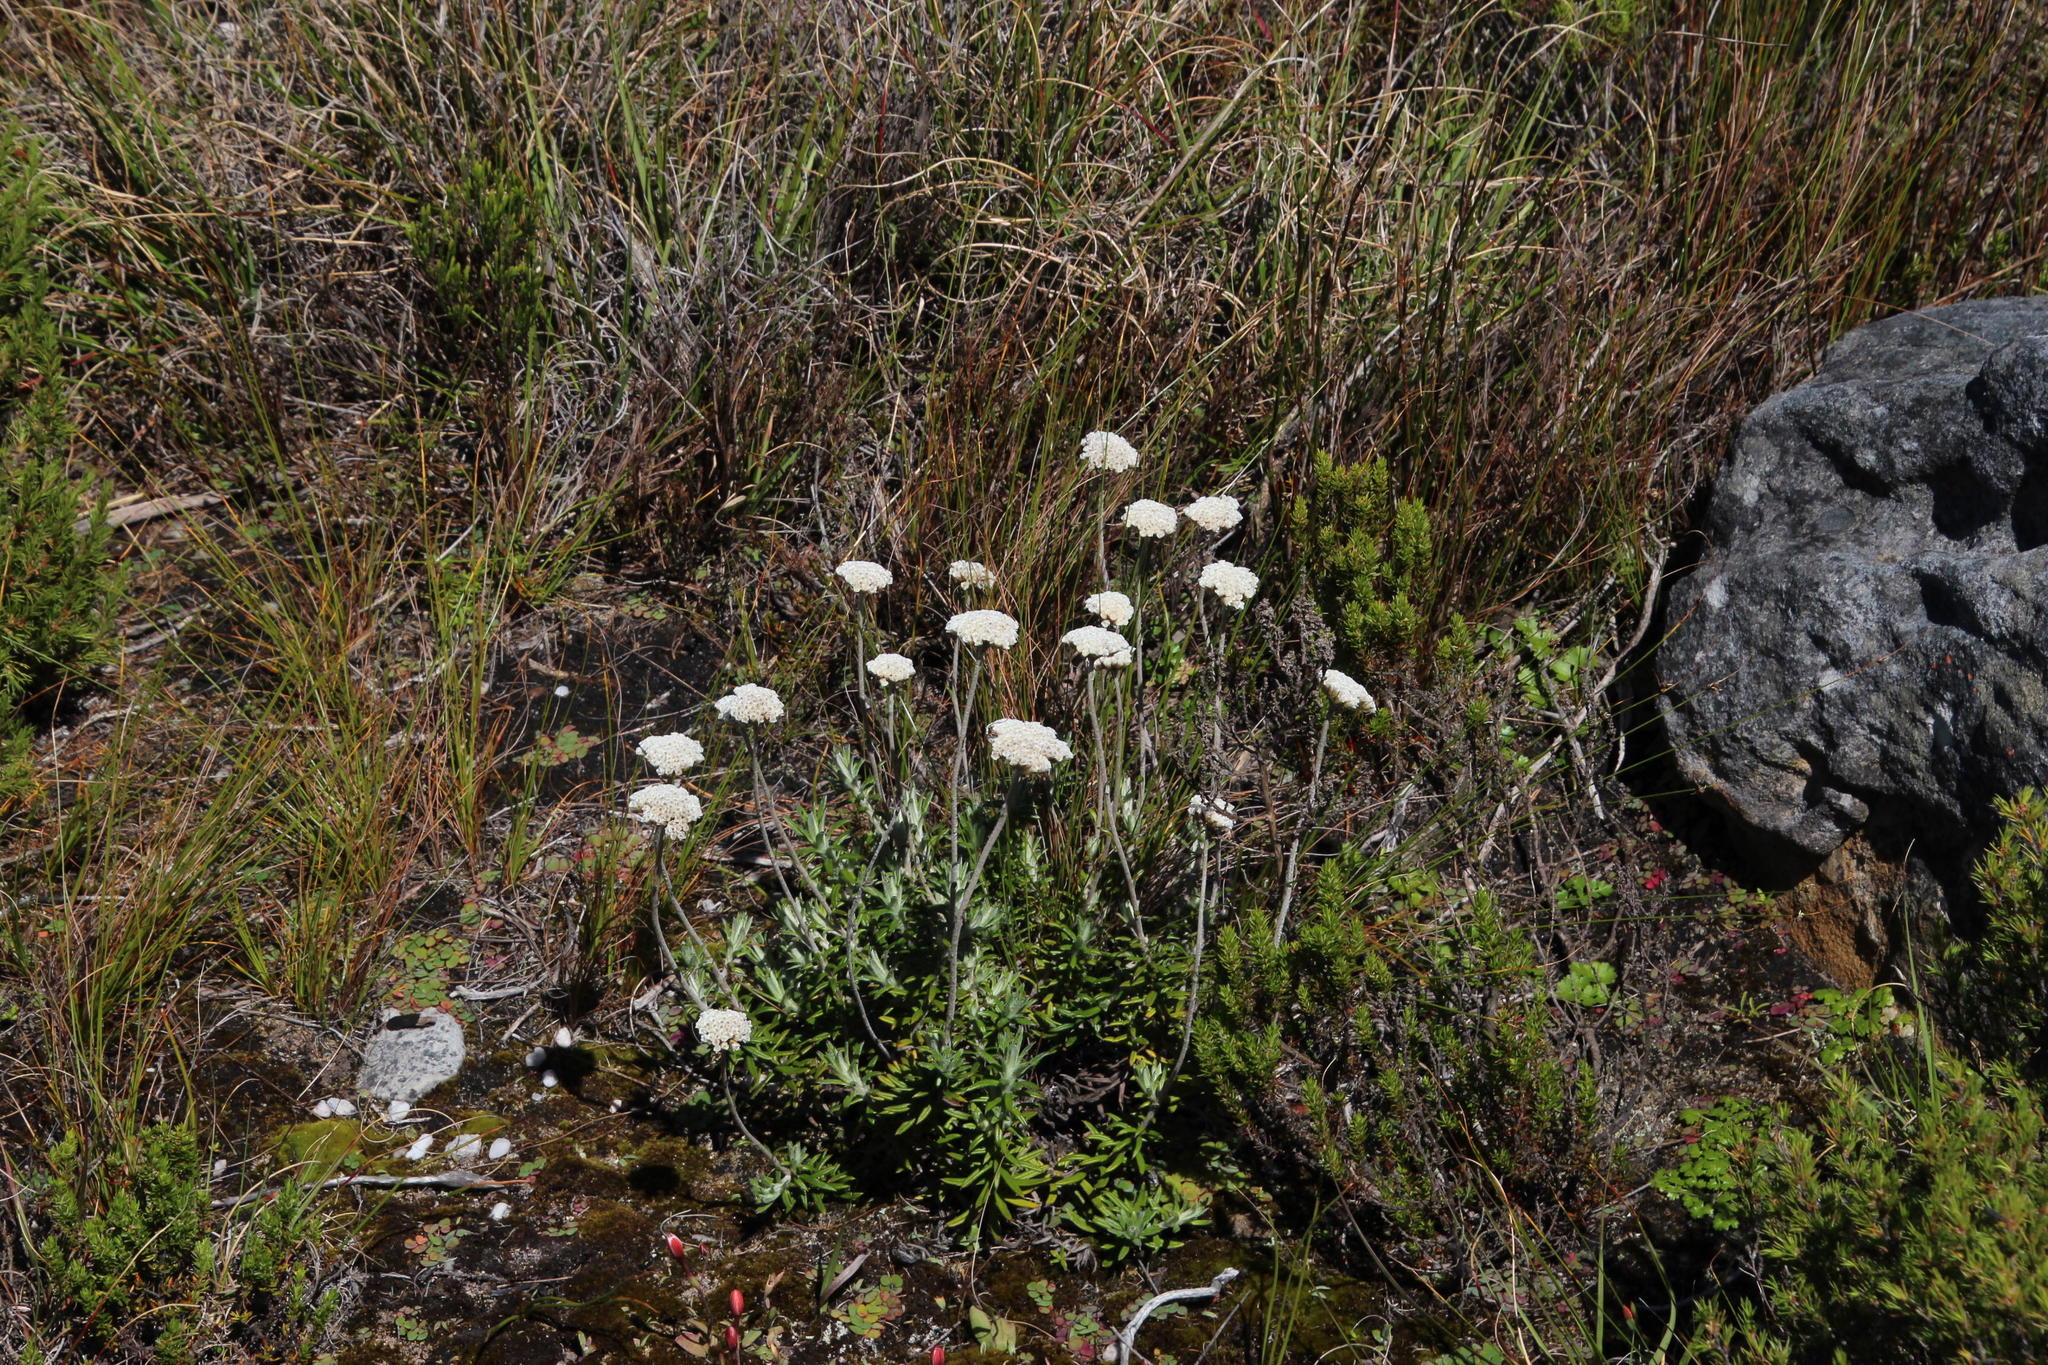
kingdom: Plantae
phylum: Tracheophyta
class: Magnoliopsida
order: Asterales
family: Asteraceae
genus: Anaxeton
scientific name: Anaxeton arborescens
